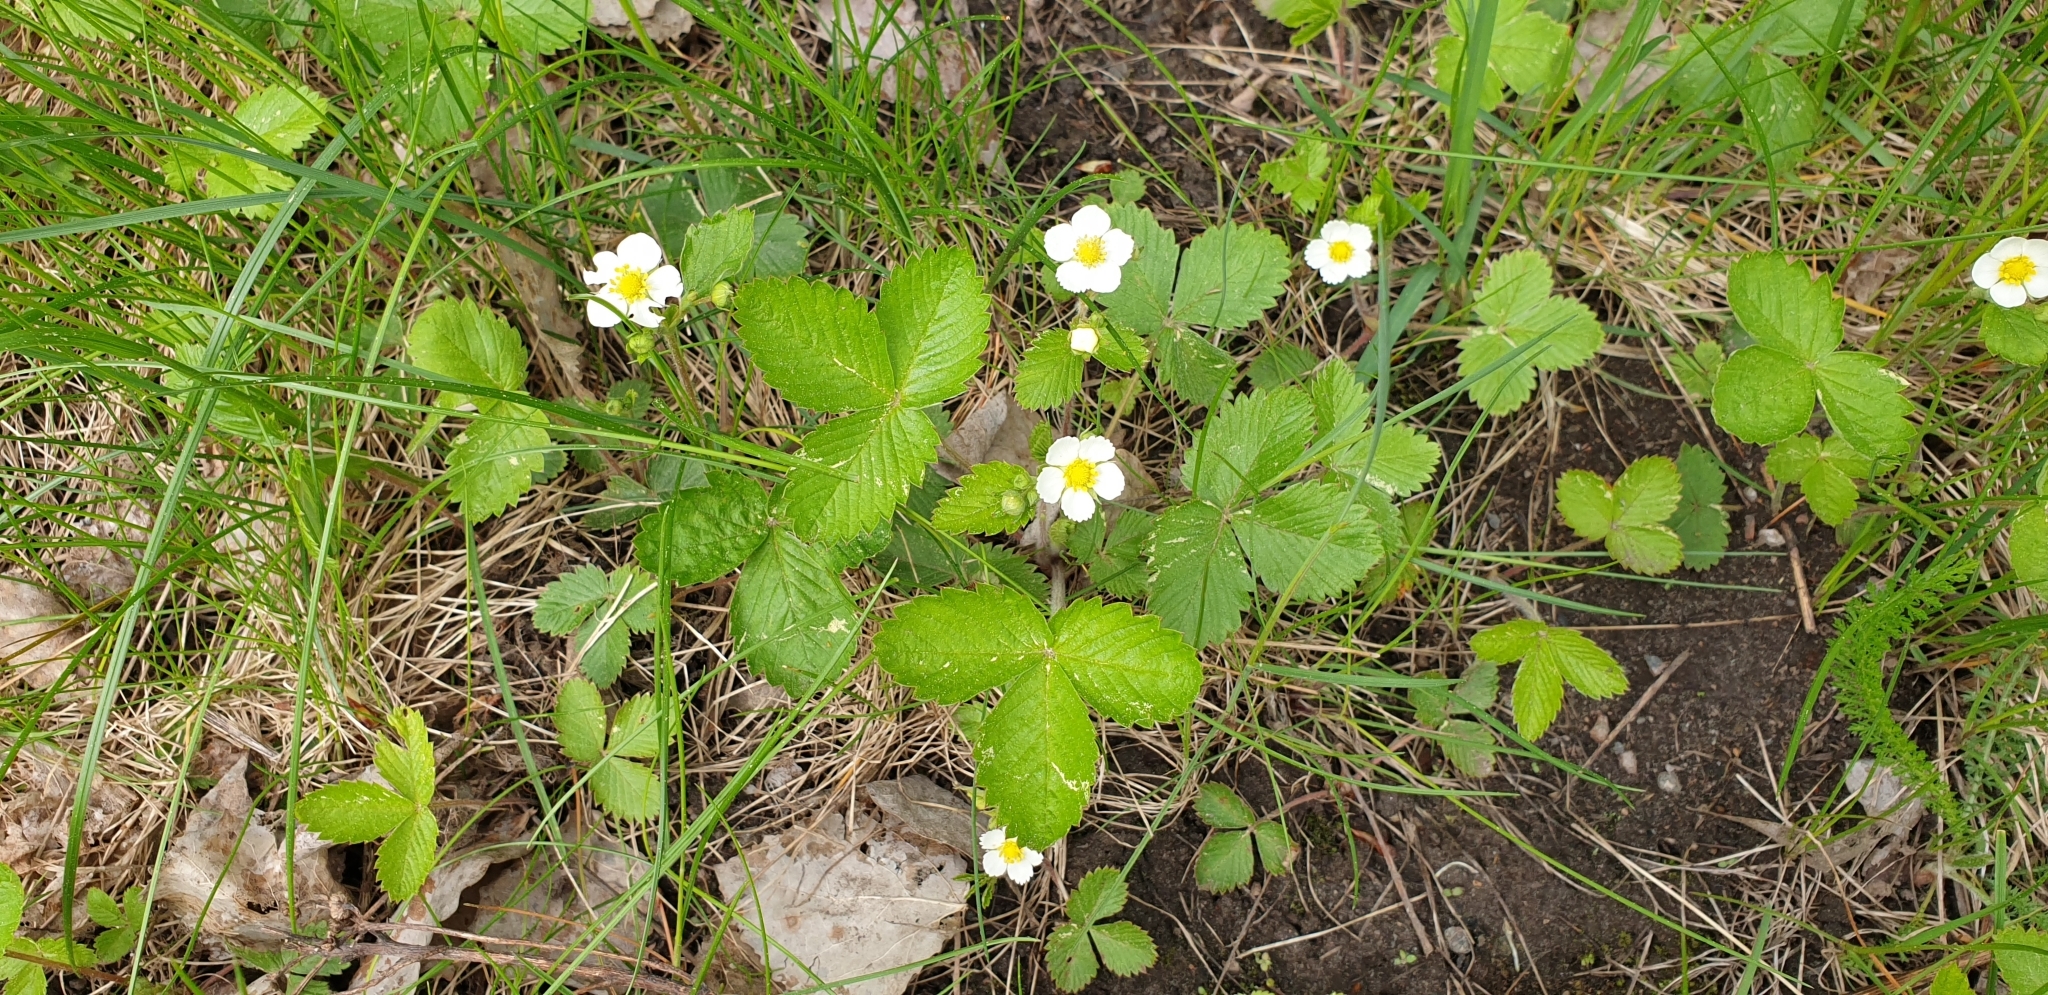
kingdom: Plantae
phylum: Tracheophyta
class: Magnoliopsida
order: Rosales
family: Rosaceae
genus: Fragaria
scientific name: Fragaria vesca
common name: Wild strawberry
